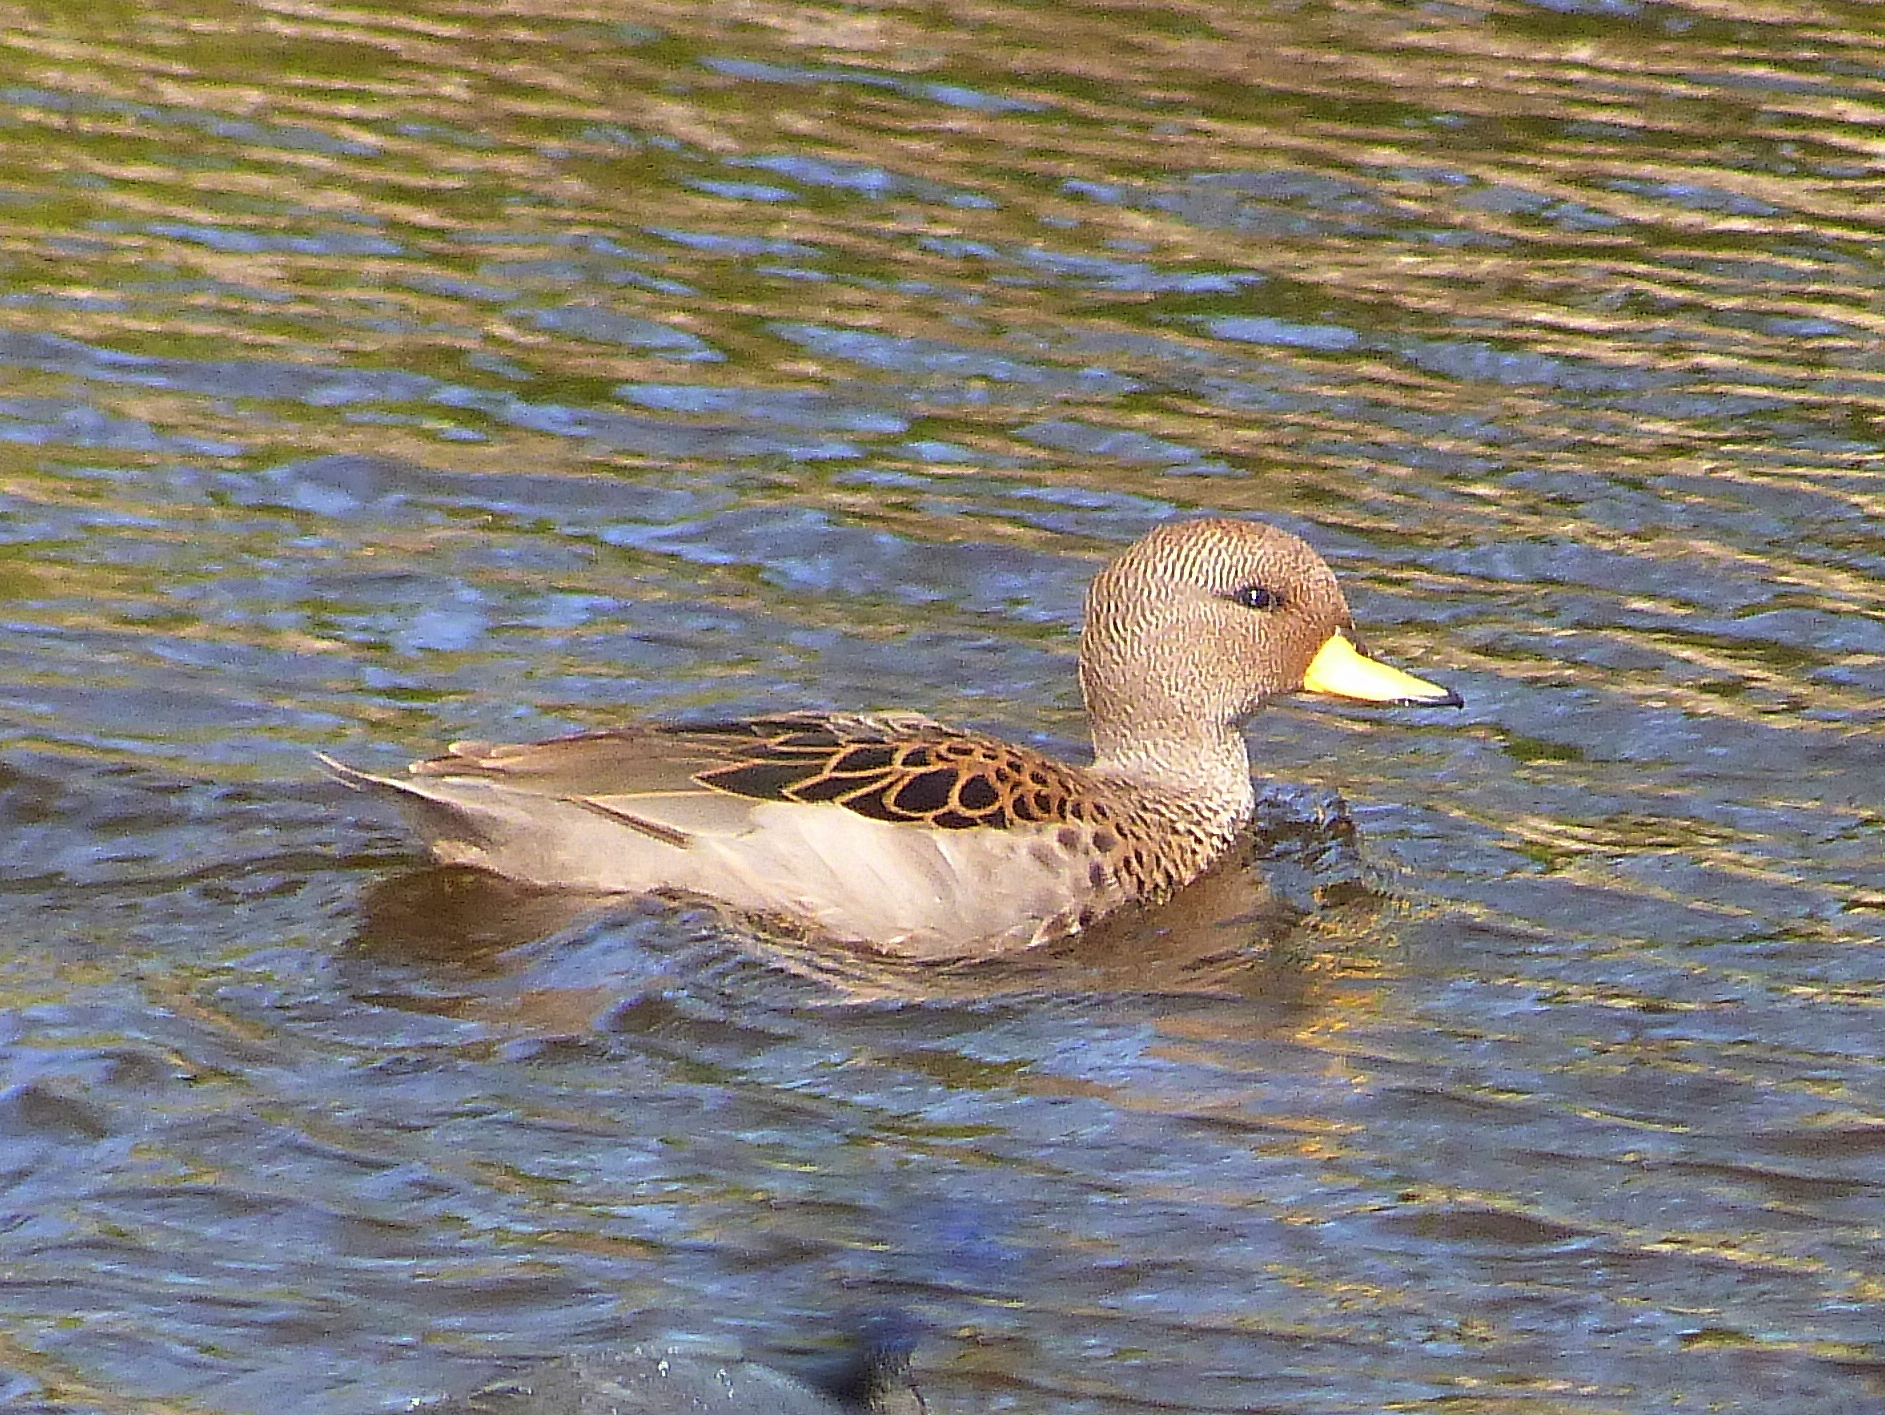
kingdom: Animalia
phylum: Chordata
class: Aves
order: Anseriformes
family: Anatidae
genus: Anas
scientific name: Anas flavirostris
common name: Yellow-billed teal
